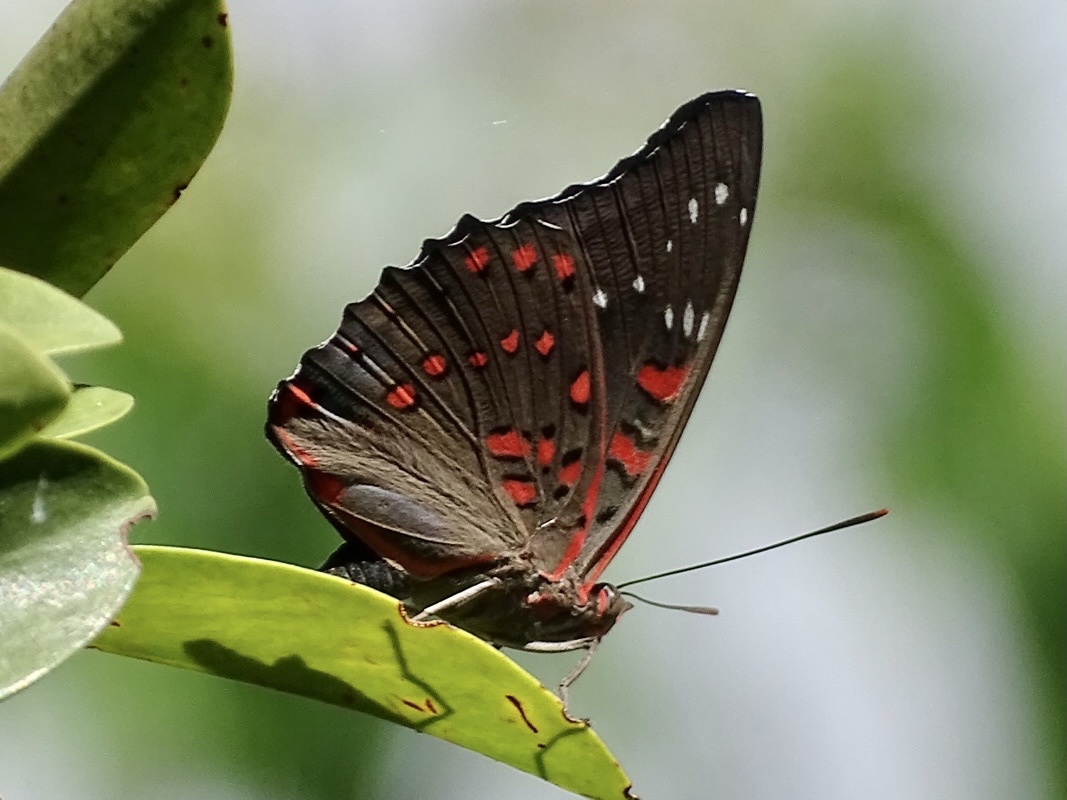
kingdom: Animalia
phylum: Arthropoda
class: Insecta
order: Lepidoptera
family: Nymphalidae
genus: Euthalia
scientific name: Euthalia lubentina
